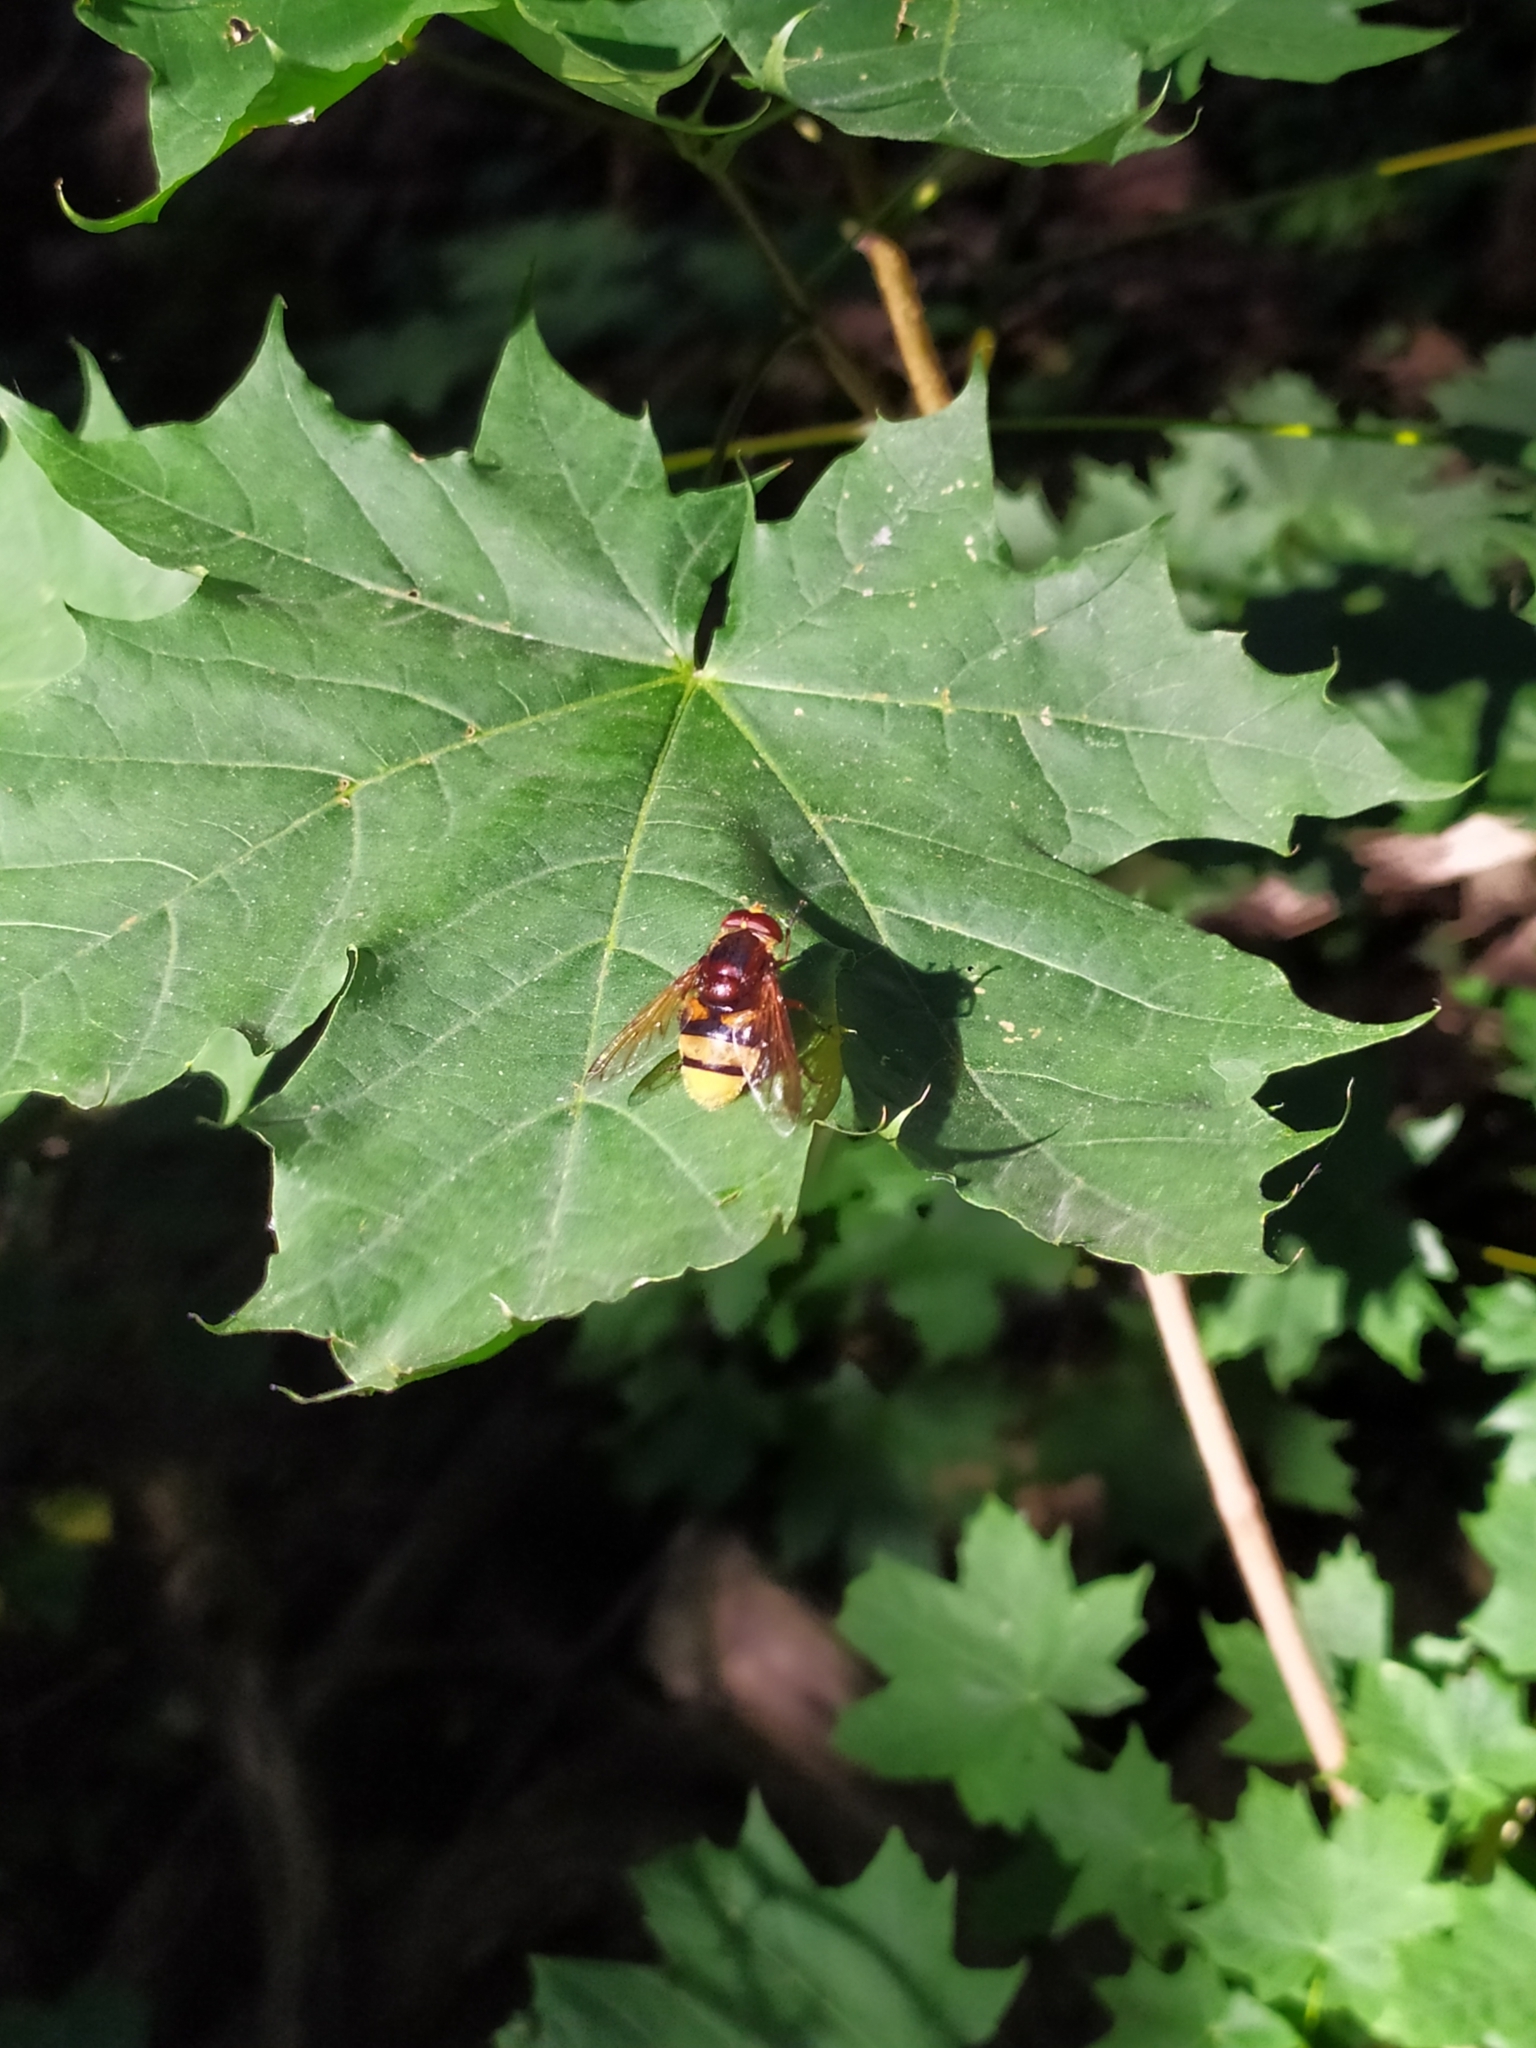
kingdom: Animalia
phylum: Arthropoda
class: Insecta
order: Diptera
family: Syrphidae
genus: Volucella
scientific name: Volucella zonaria
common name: Hornet hoverfly
